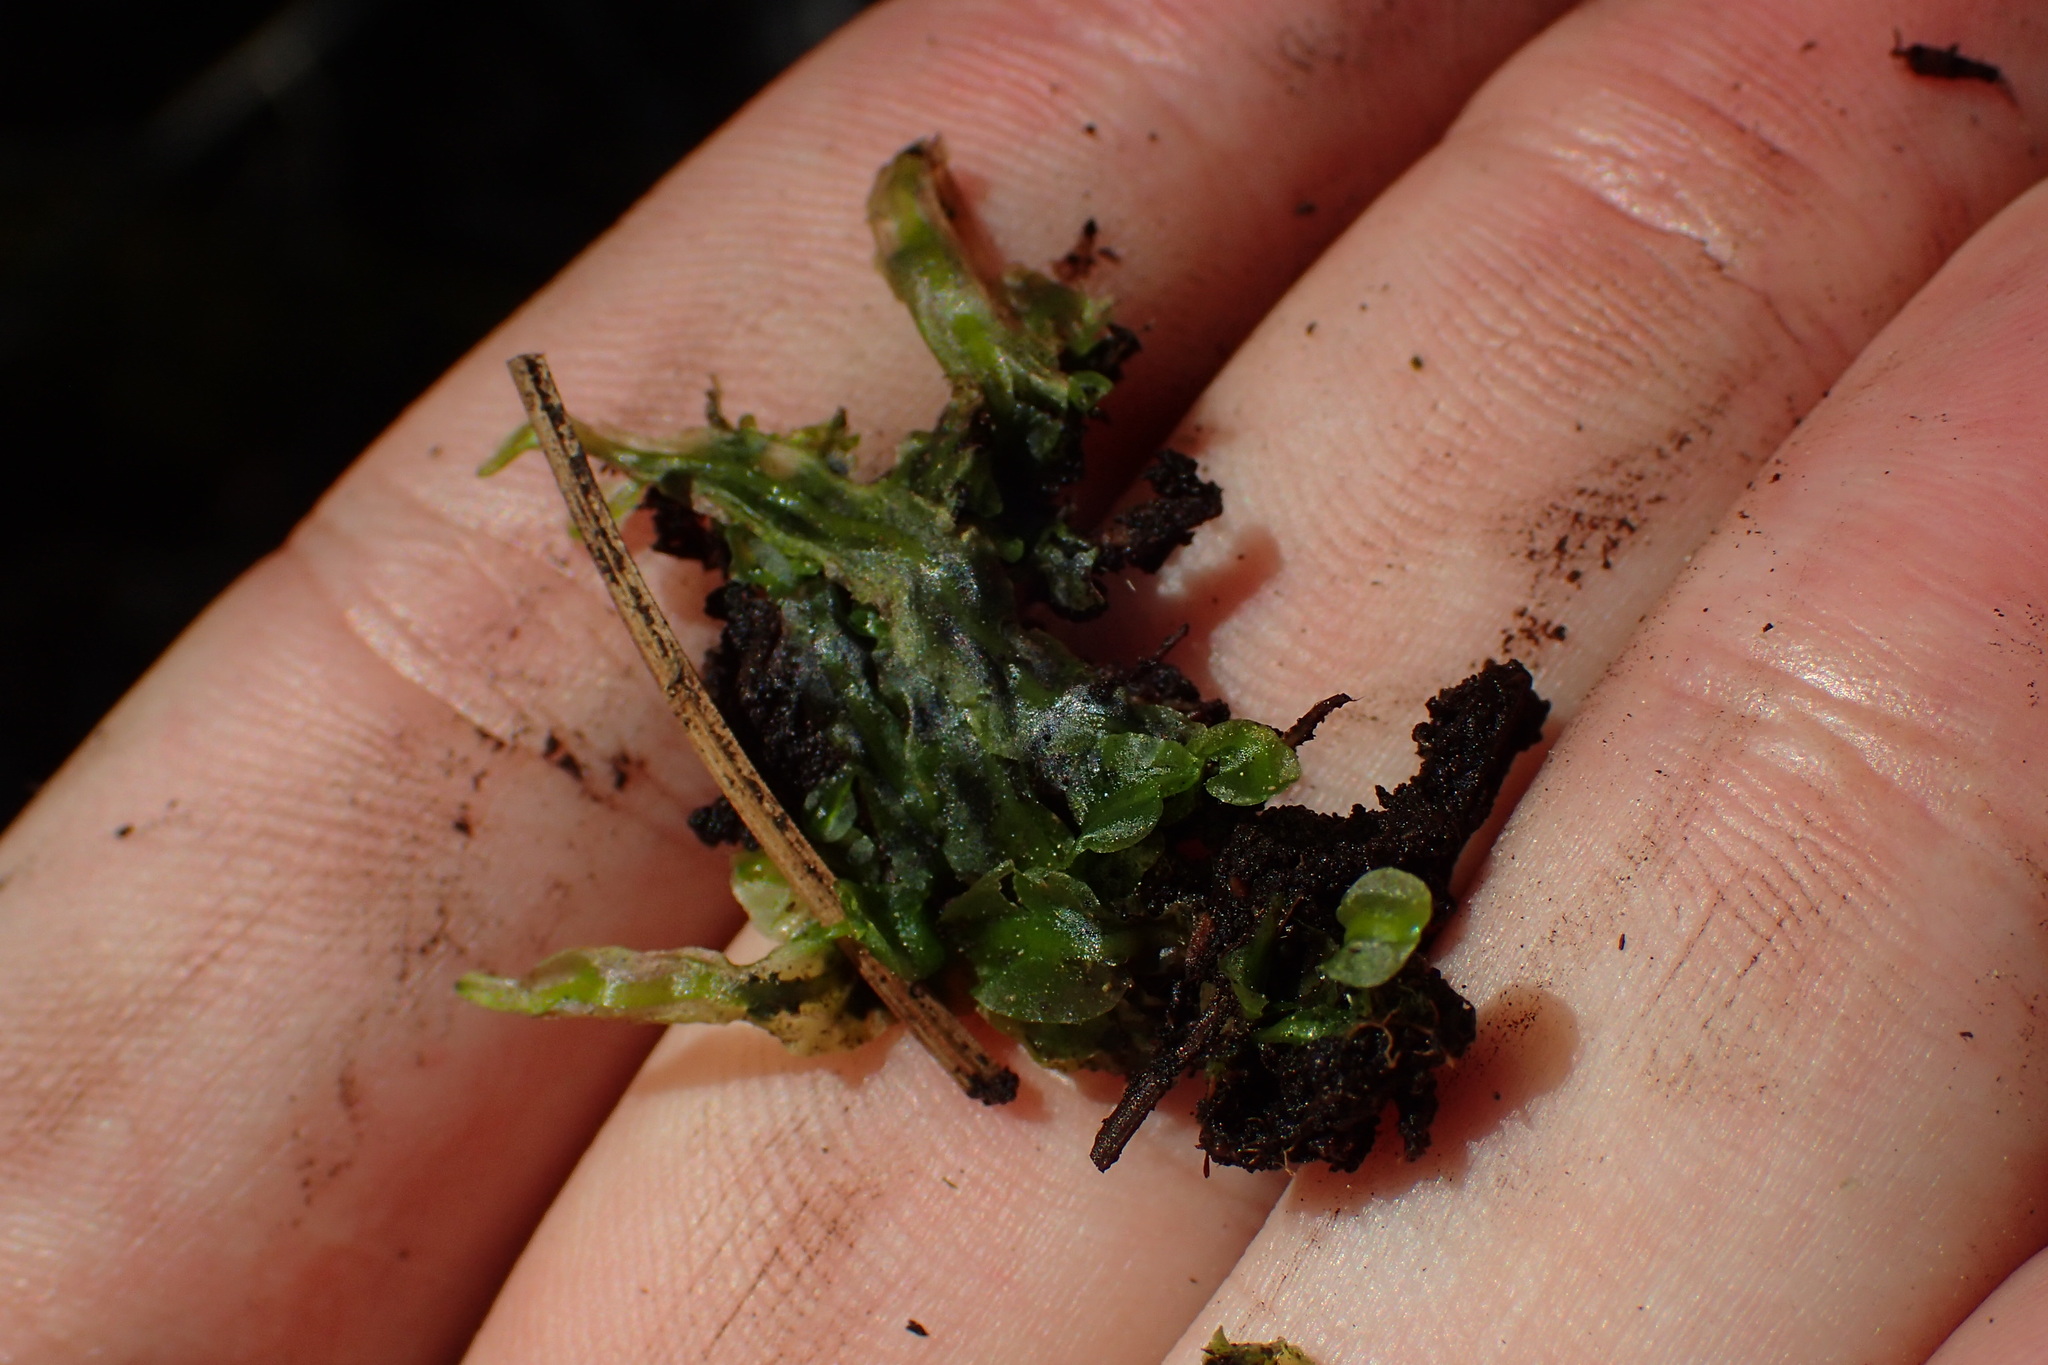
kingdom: Plantae
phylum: Marchantiophyta
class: Jungermanniopsida
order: Pallaviciniales
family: Pallaviciniaceae
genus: Pallavicinia
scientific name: Pallavicinia lyellii
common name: Veilwort
